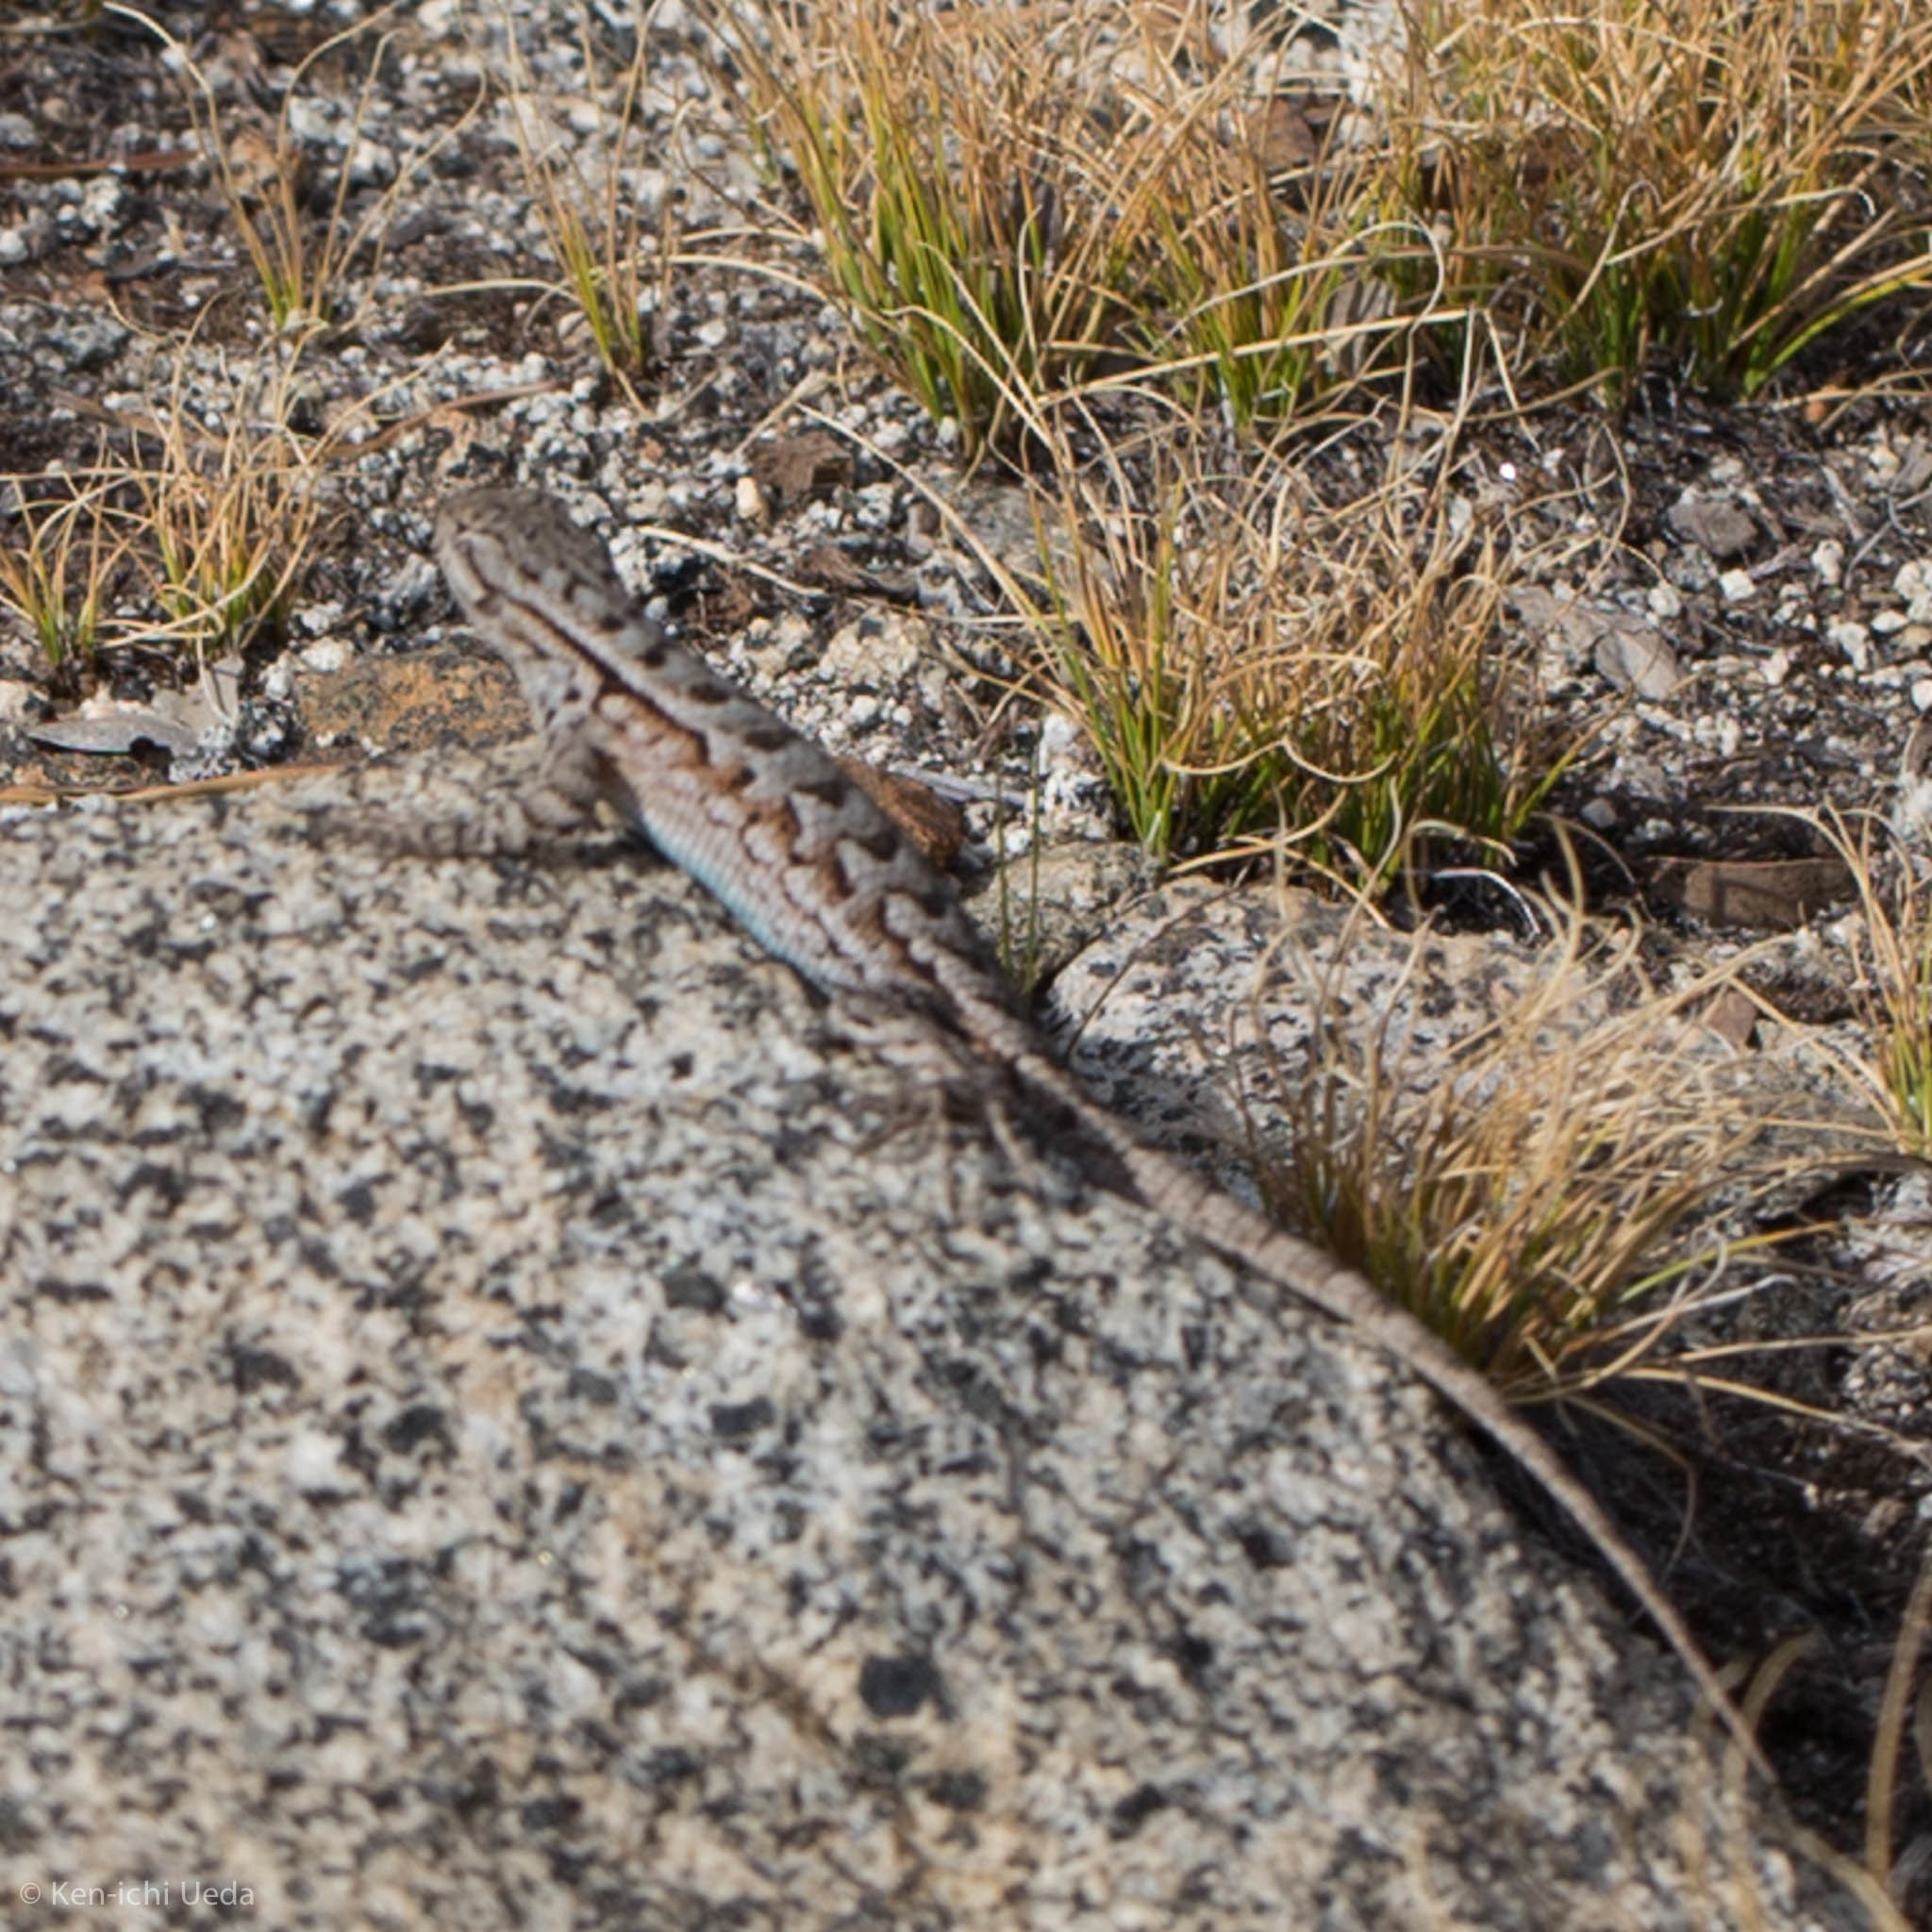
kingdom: Animalia
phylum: Chordata
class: Squamata
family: Phrynosomatidae
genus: Sceloporus
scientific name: Sceloporus graciosus
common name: Sagebrush lizard
